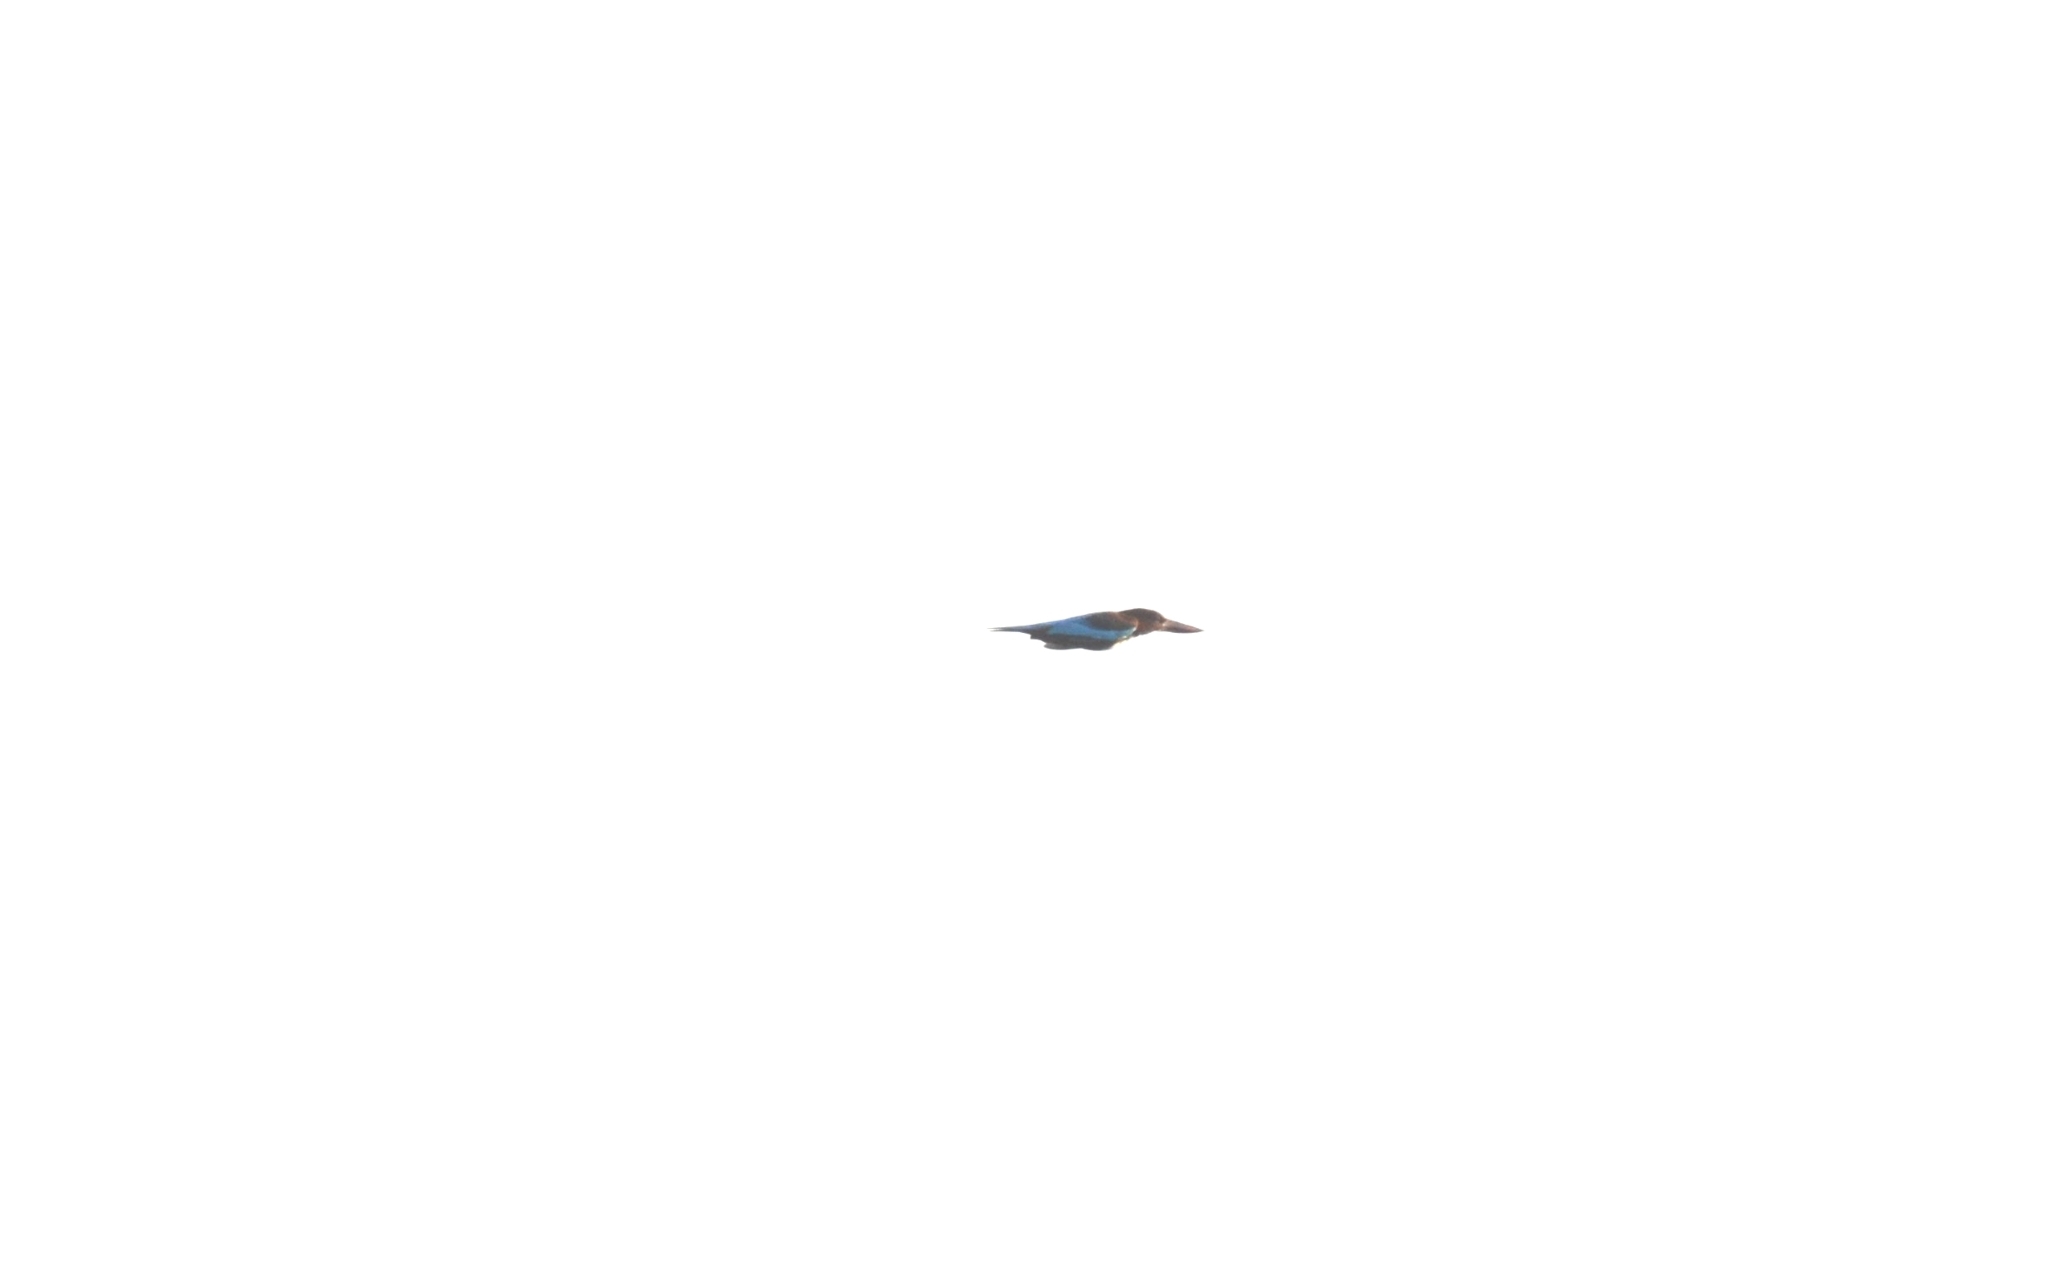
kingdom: Animalia
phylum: Chordata
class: Aves
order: Coraciiformes
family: Alcedinidae
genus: Halcyon
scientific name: Halcyon smyrnensis
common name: White-throated kingfisher
